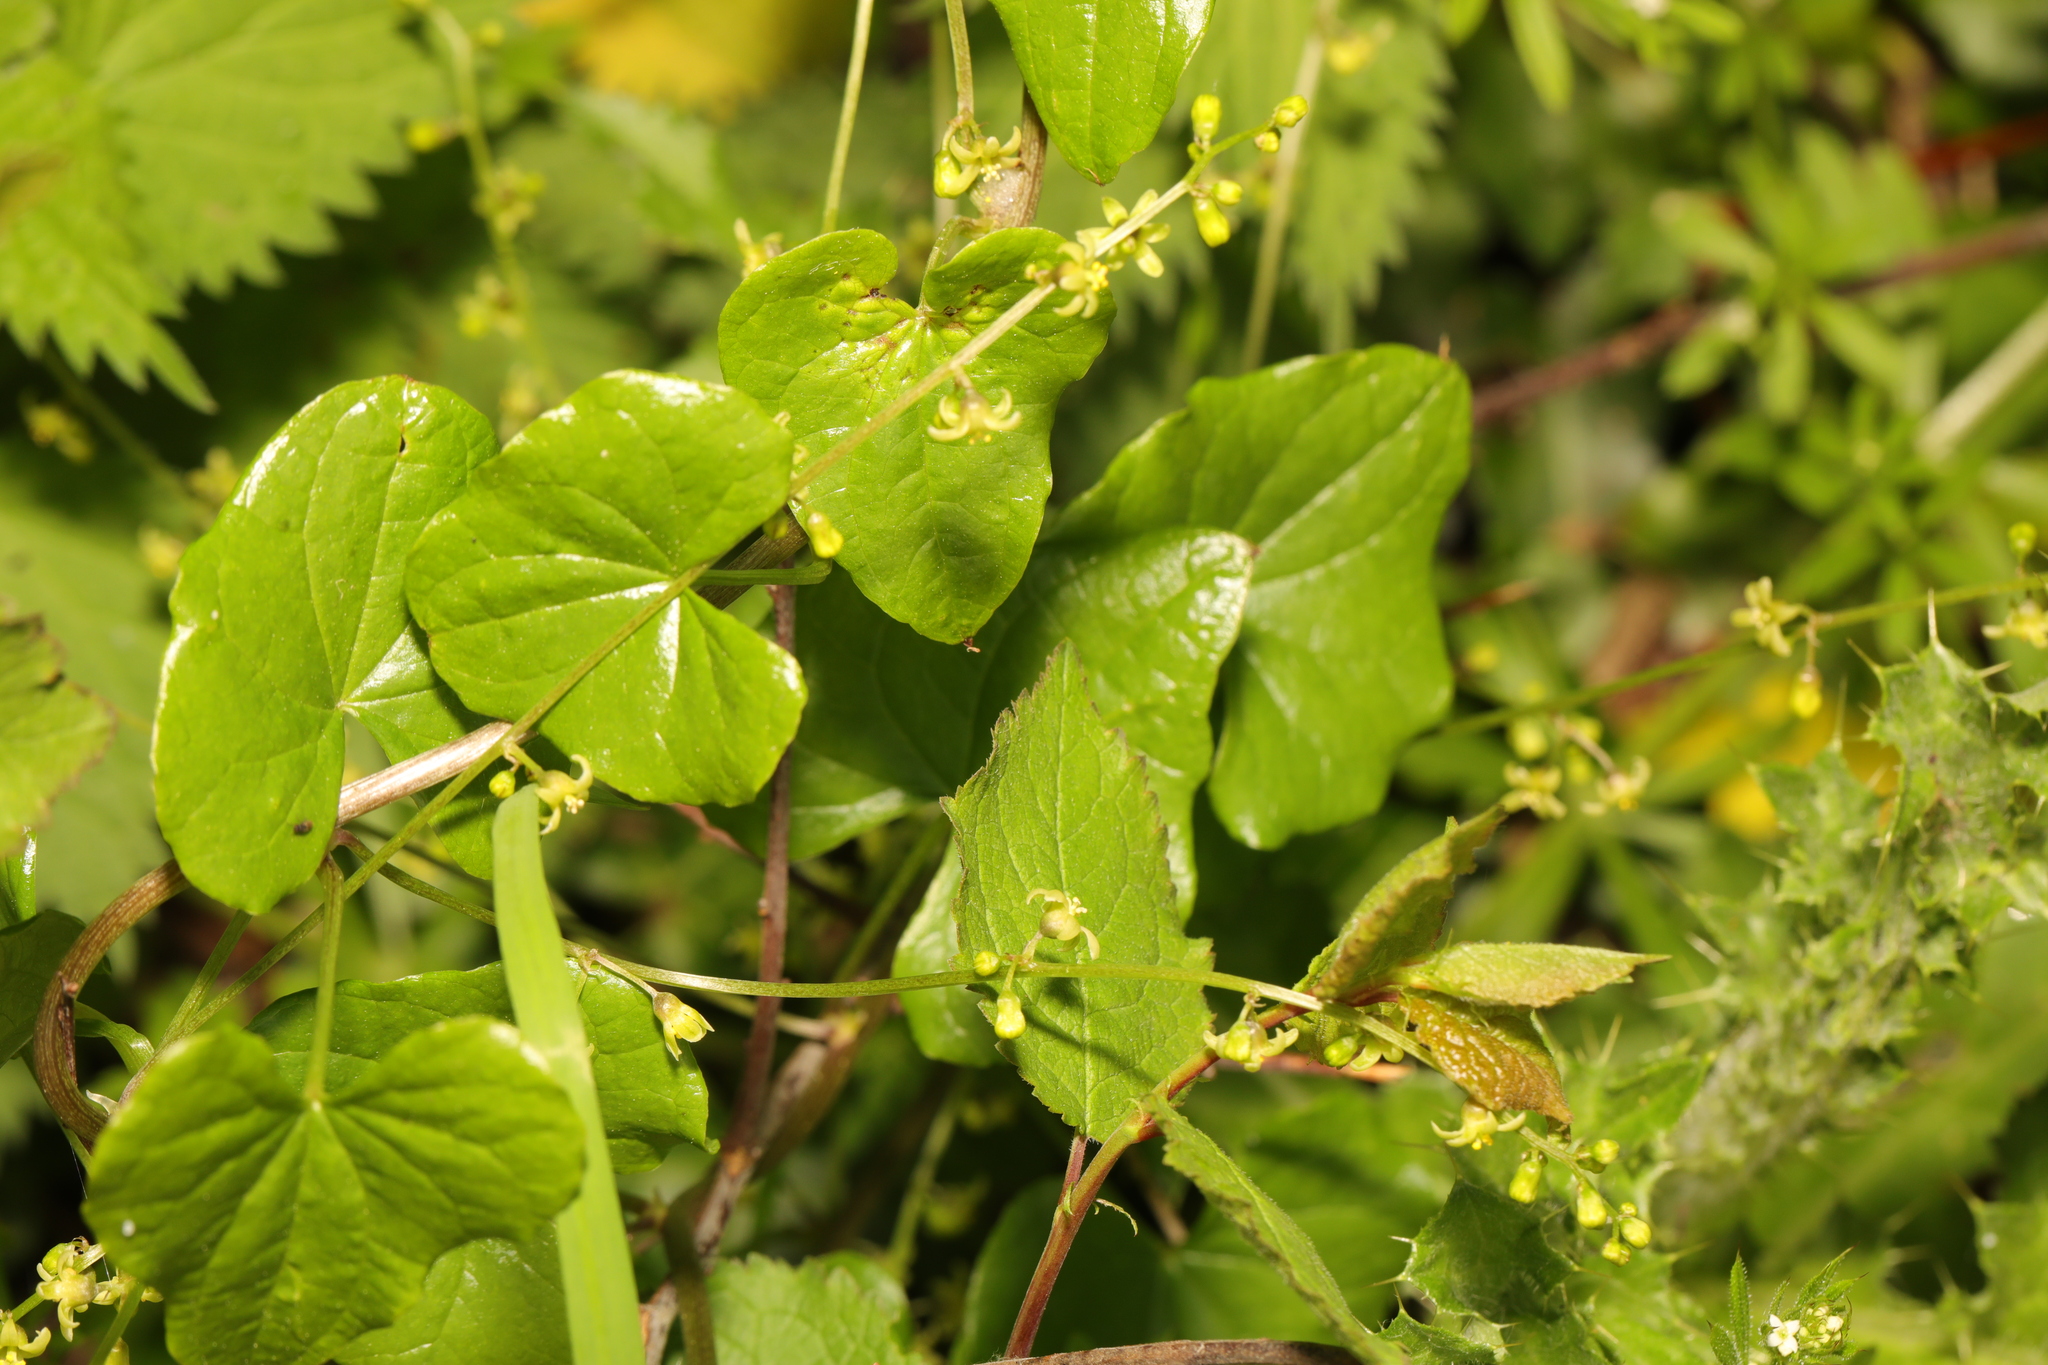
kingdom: Plantae
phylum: Tracheophyta
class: Liliopsida
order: Dioscoreales
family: Dioscoreaceae
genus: Dioscorea
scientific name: Dioscorea communis
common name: Black-bindweed
